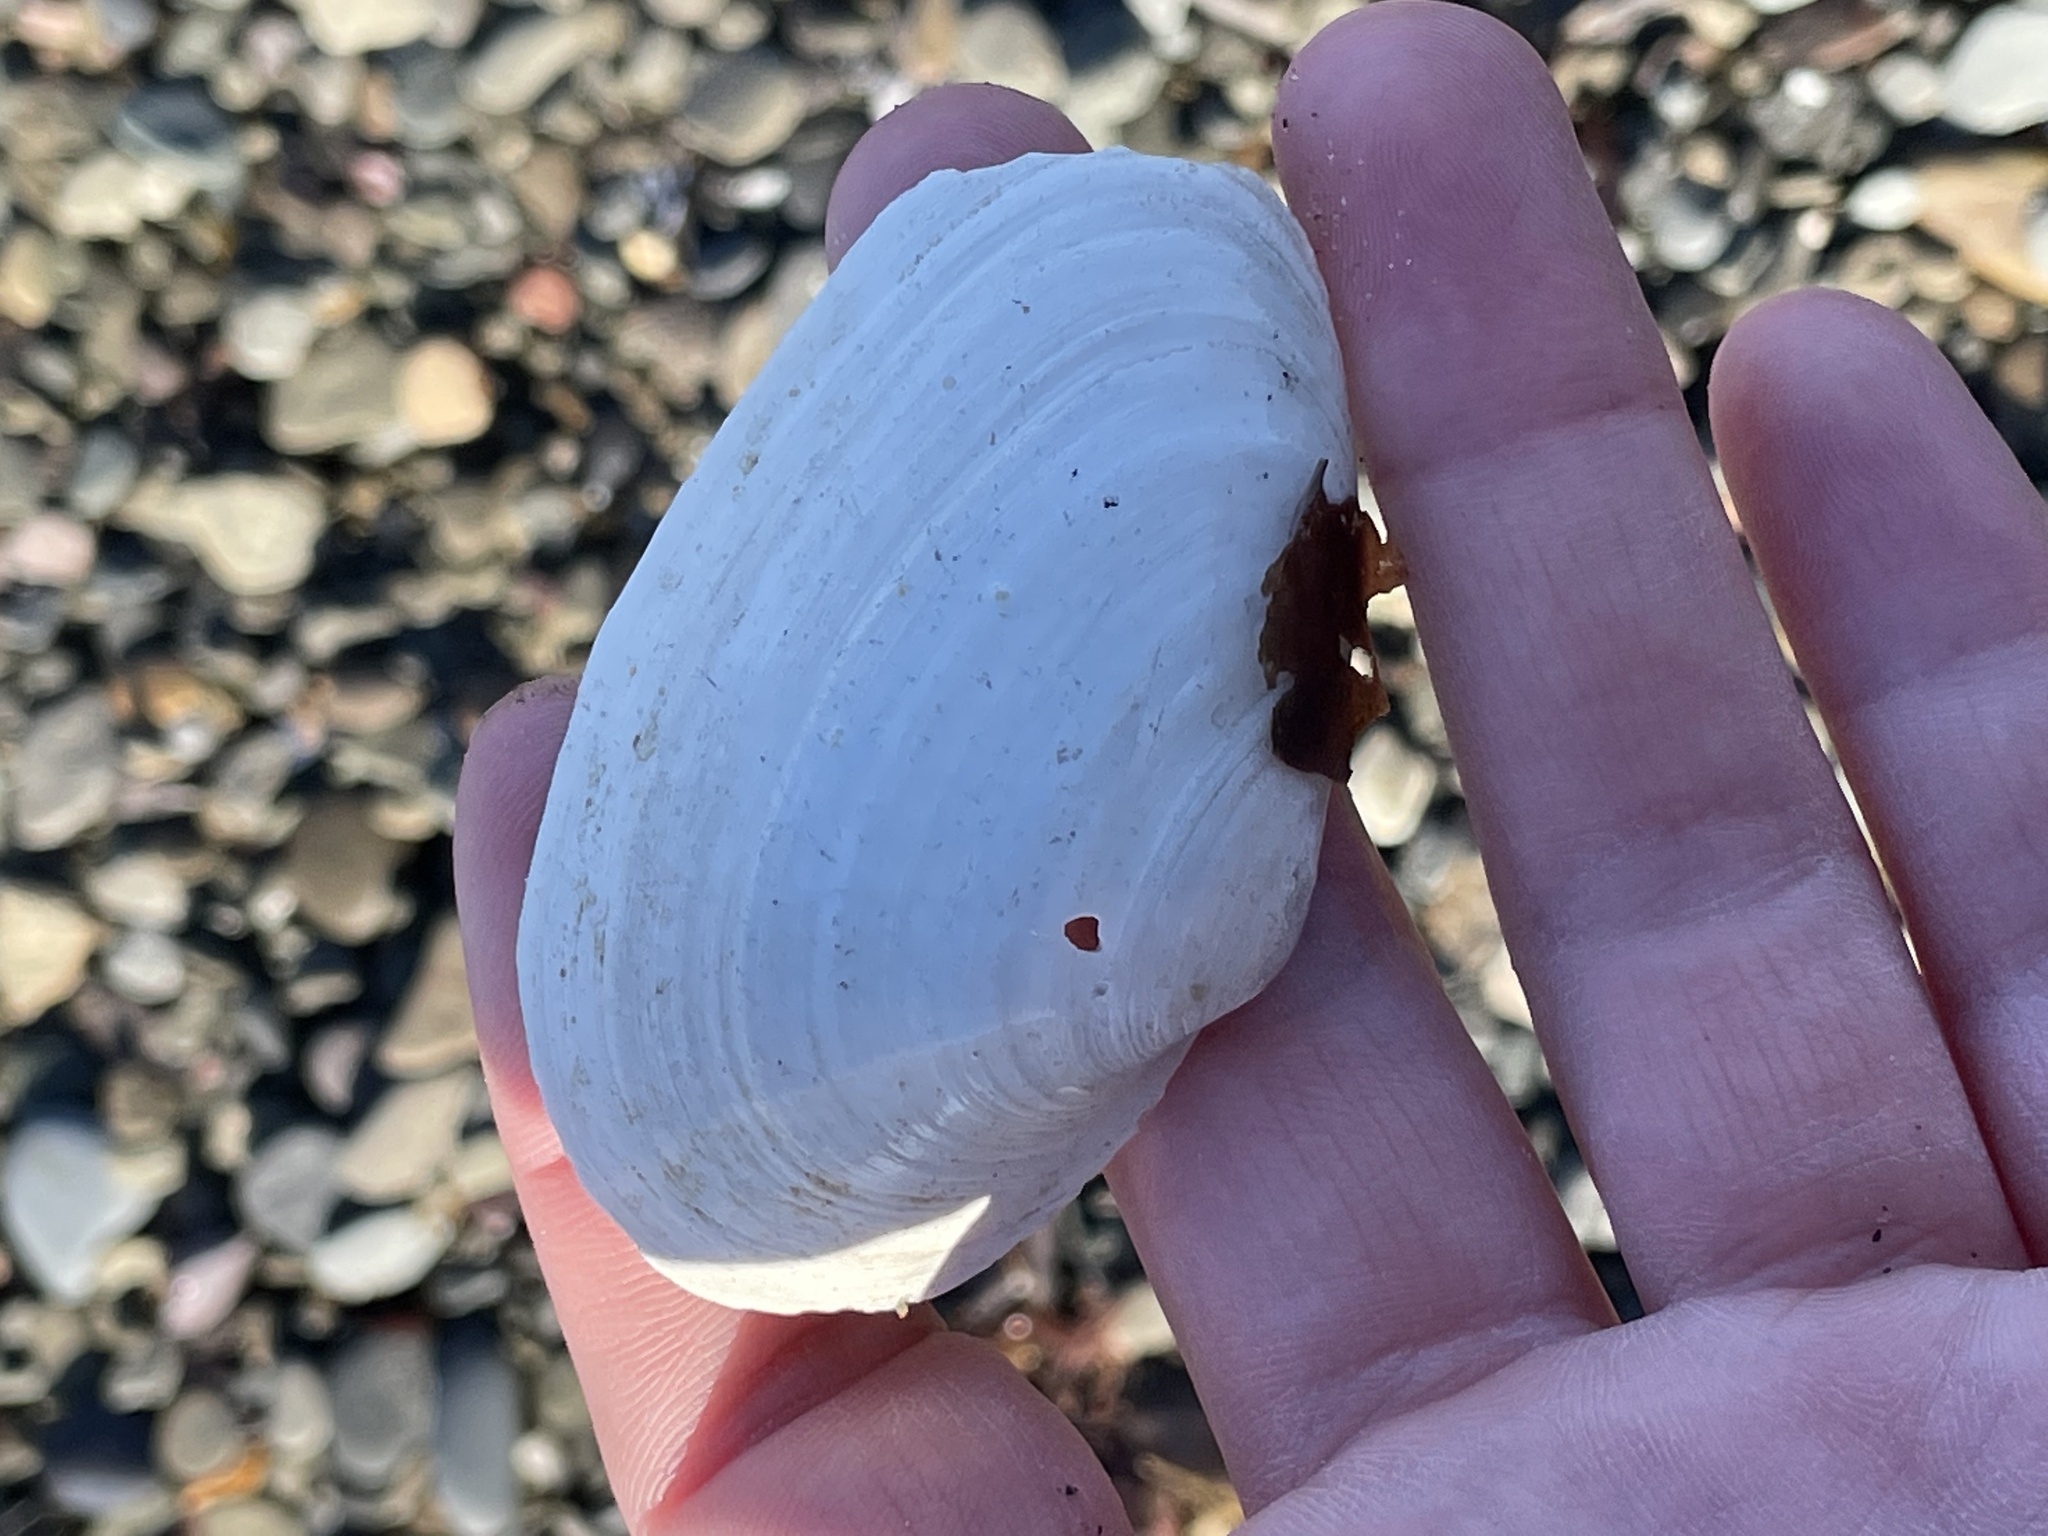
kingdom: Animalia
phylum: Mollusca
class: Bivalvia
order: Myida
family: Myidae
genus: Mya
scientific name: Mya arenaria
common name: Soft-shelled clam
